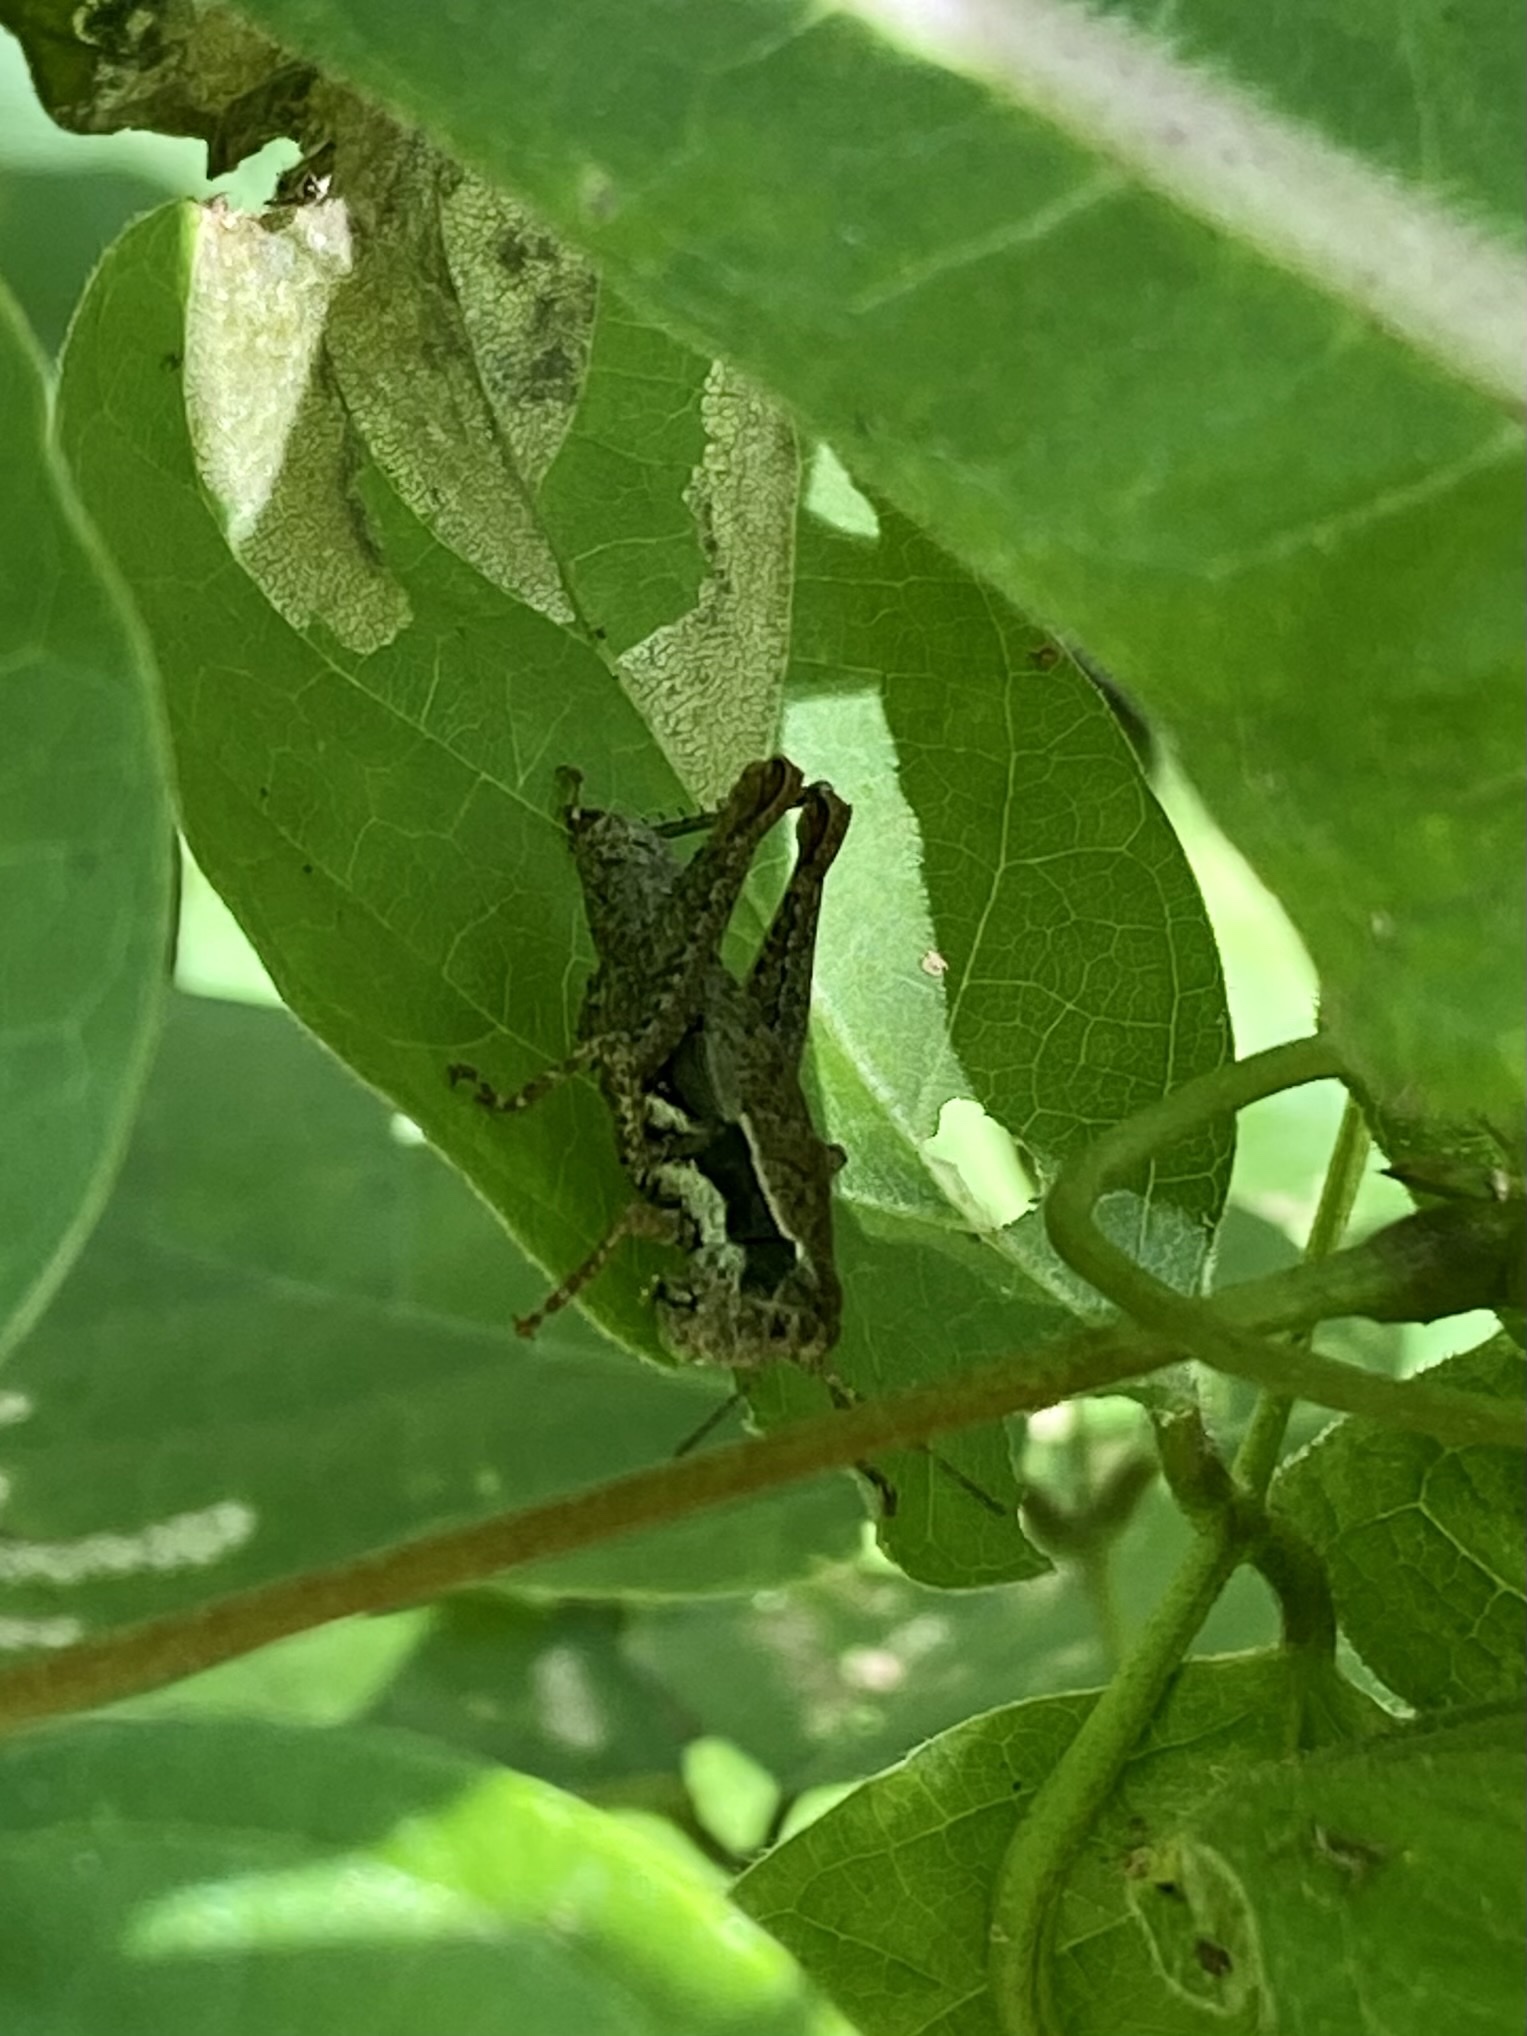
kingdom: Animalia
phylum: Arthropoda
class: Insecta
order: Orthoptera
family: Acrididae
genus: Melanoplus
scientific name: Melanoplus
